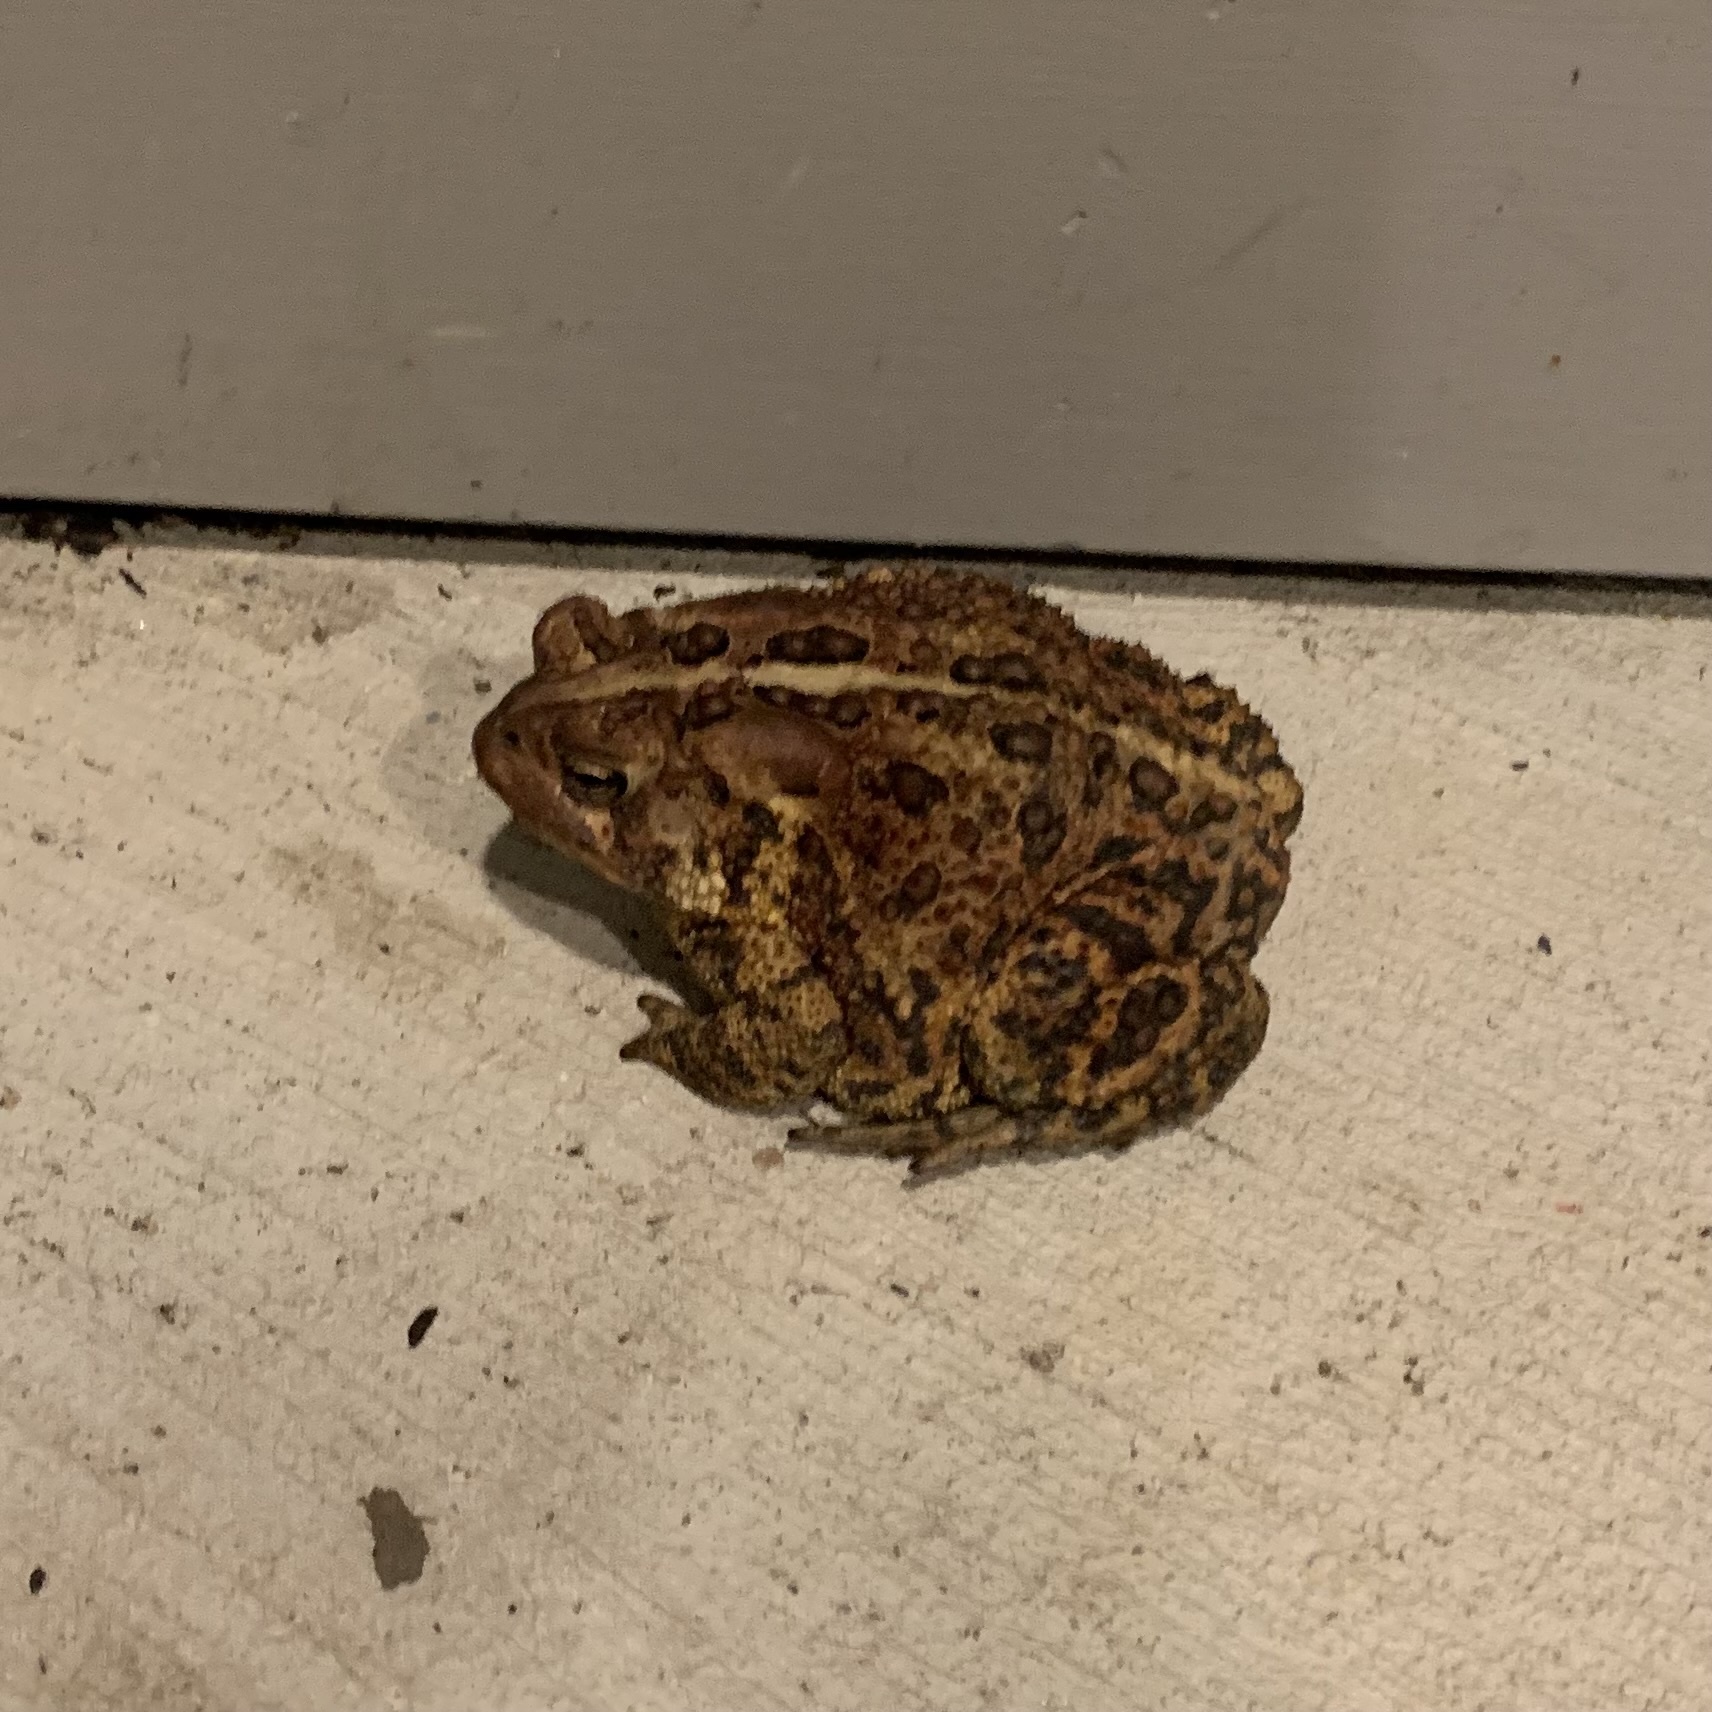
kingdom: Animalia
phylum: Chordata
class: Amphibia
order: Anura
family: Bufonidae
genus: Anaxyrus
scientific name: Anaxyrus americanus
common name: American toad
